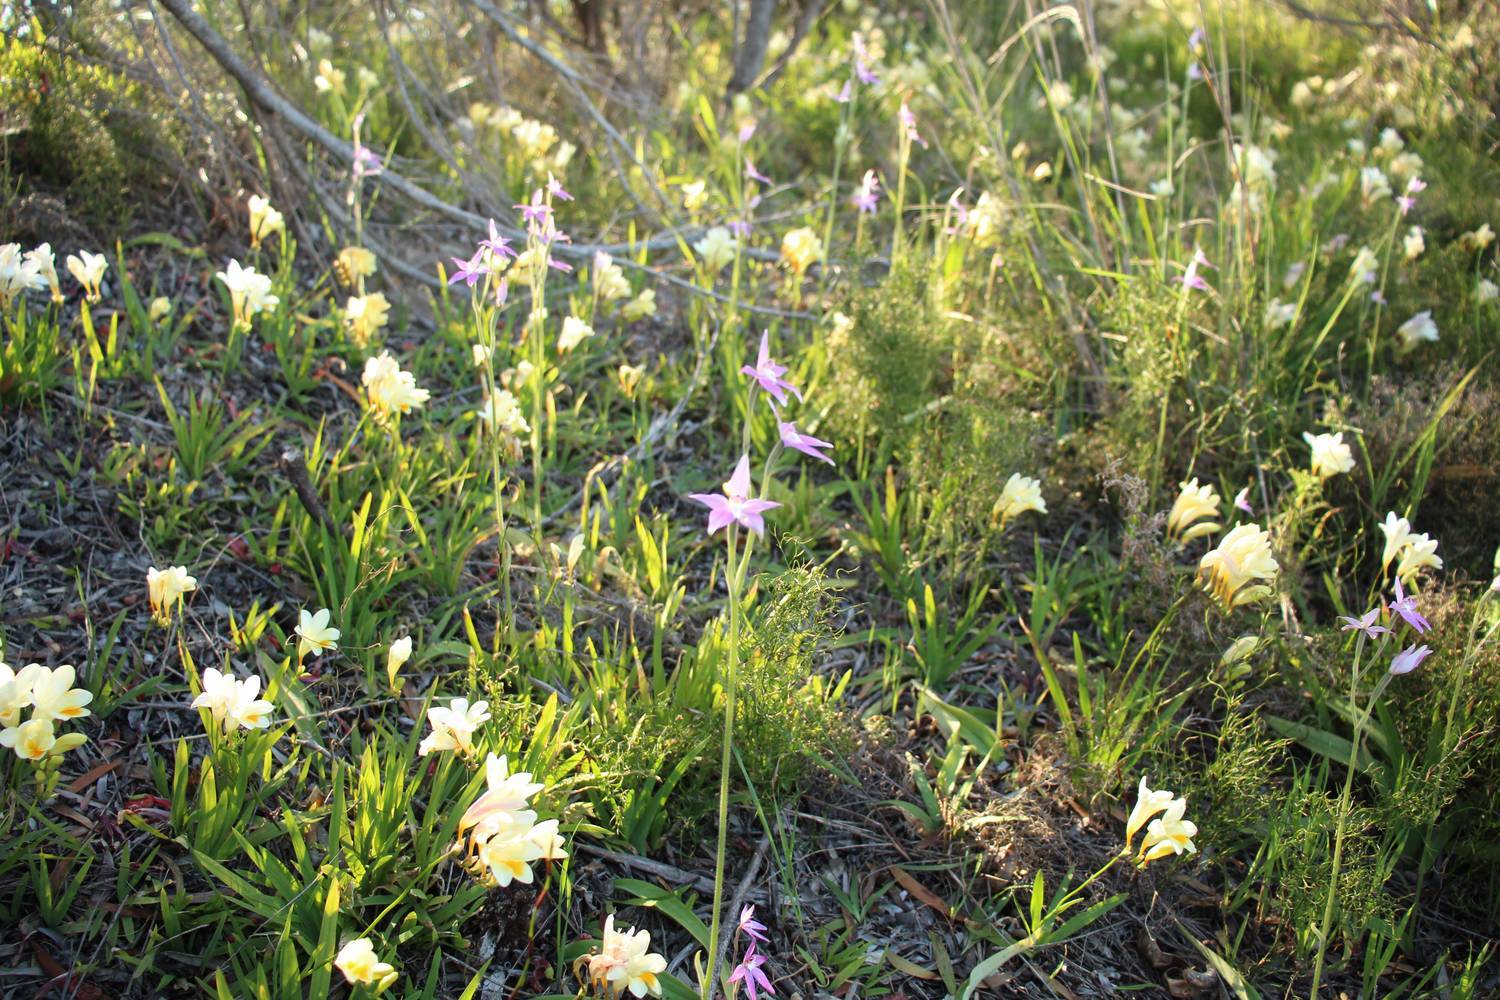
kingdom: Plantae
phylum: Tracheophyta
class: Liliopsida
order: Asparagales
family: Orchidaceae
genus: Caladenia
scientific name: Caladenia latifolia
